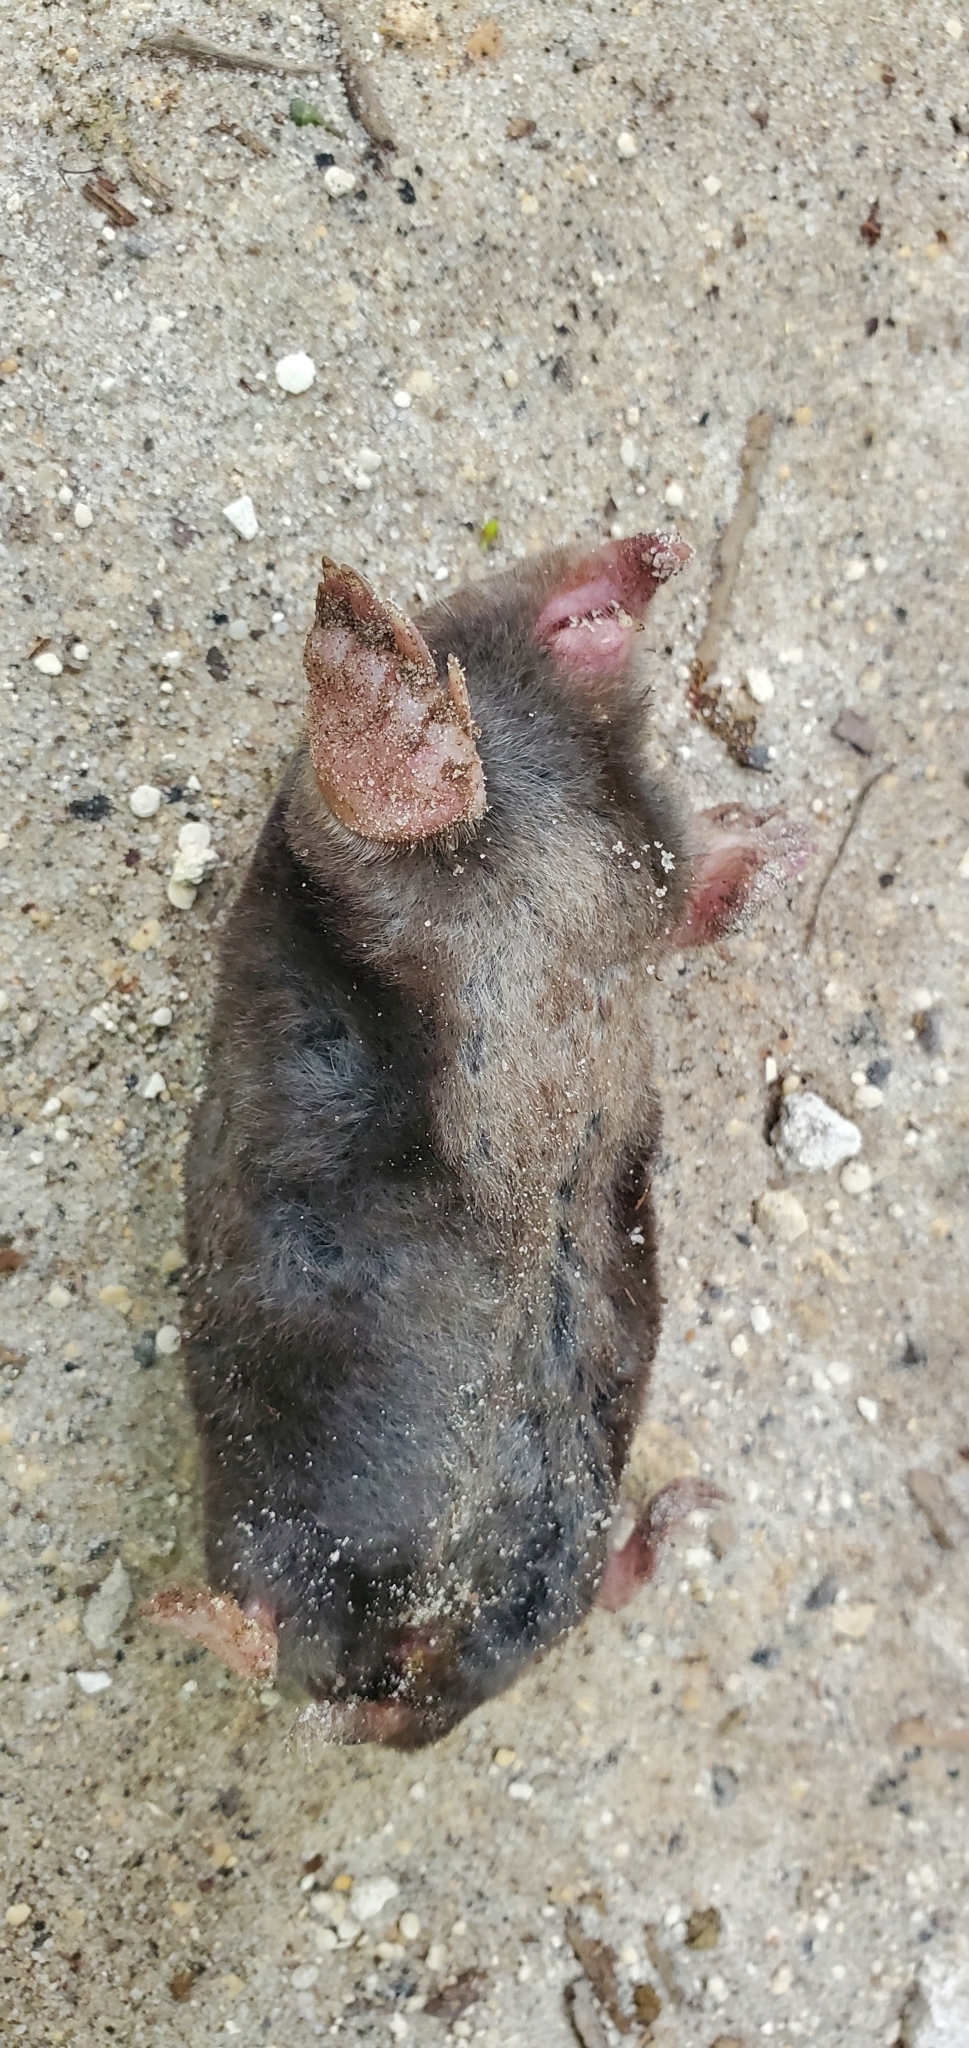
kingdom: Animalia
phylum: Chordata
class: Mammalia
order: Soricomorpha
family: Talpidae
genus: Scalopus
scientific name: Scalopus aquaticus
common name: Eastern mole
